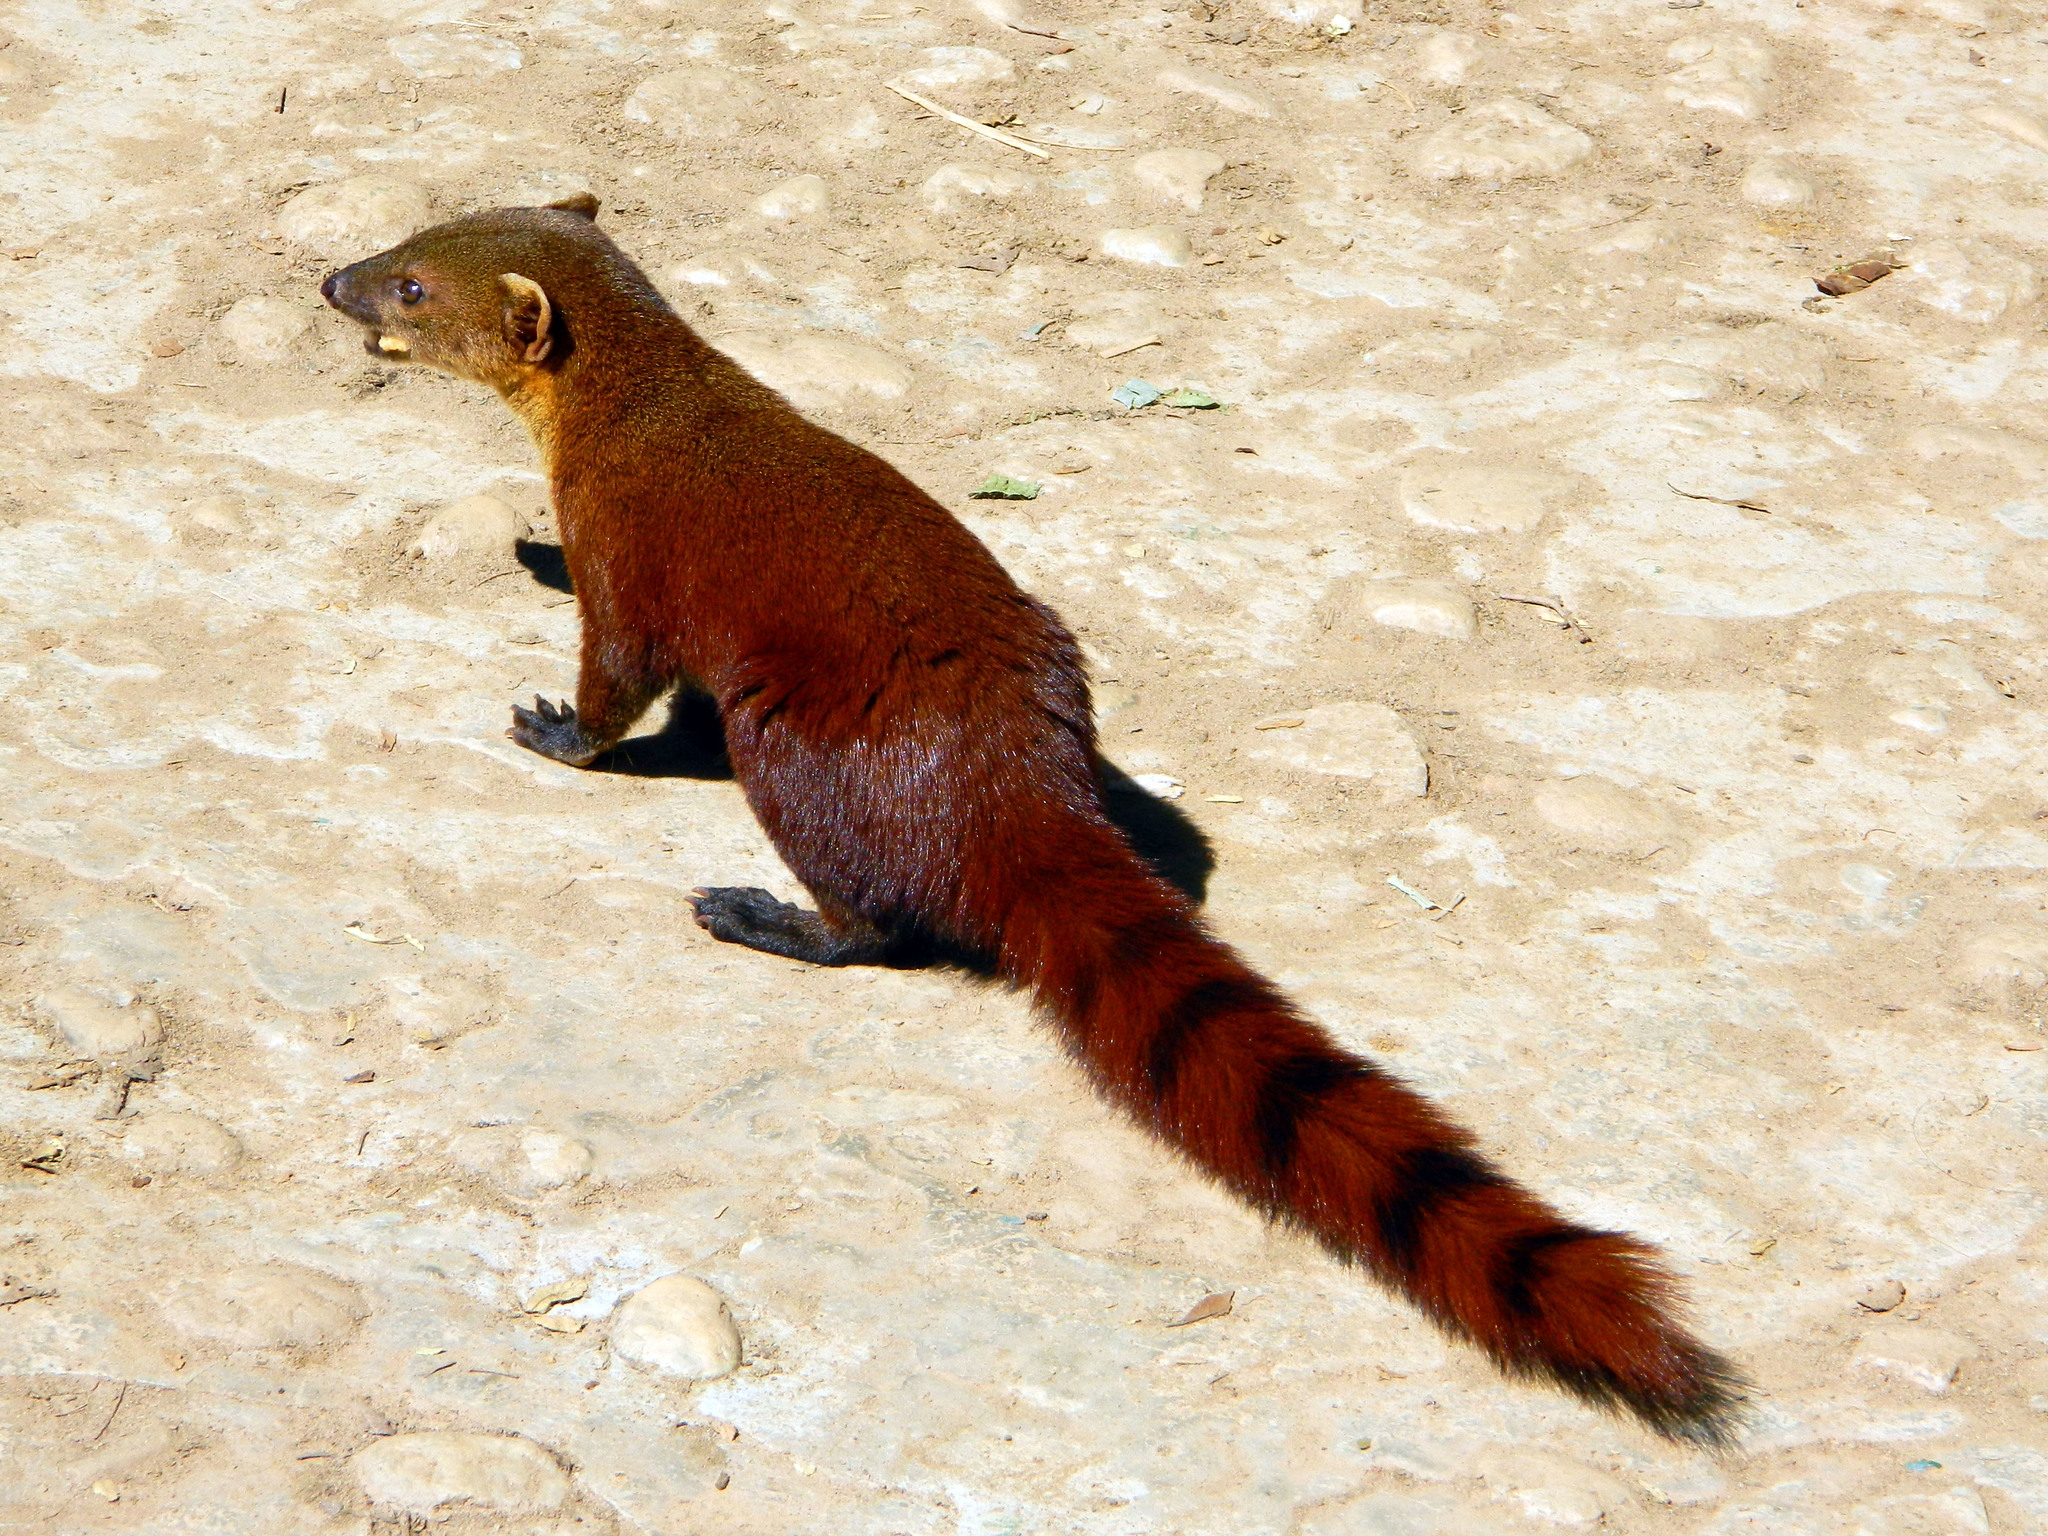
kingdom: Animalia
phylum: Chordata
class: Mammalia
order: Carnivora
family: Eupleridae
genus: Galidia
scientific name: Galidia elegans
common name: Ring-tailed mongoose
